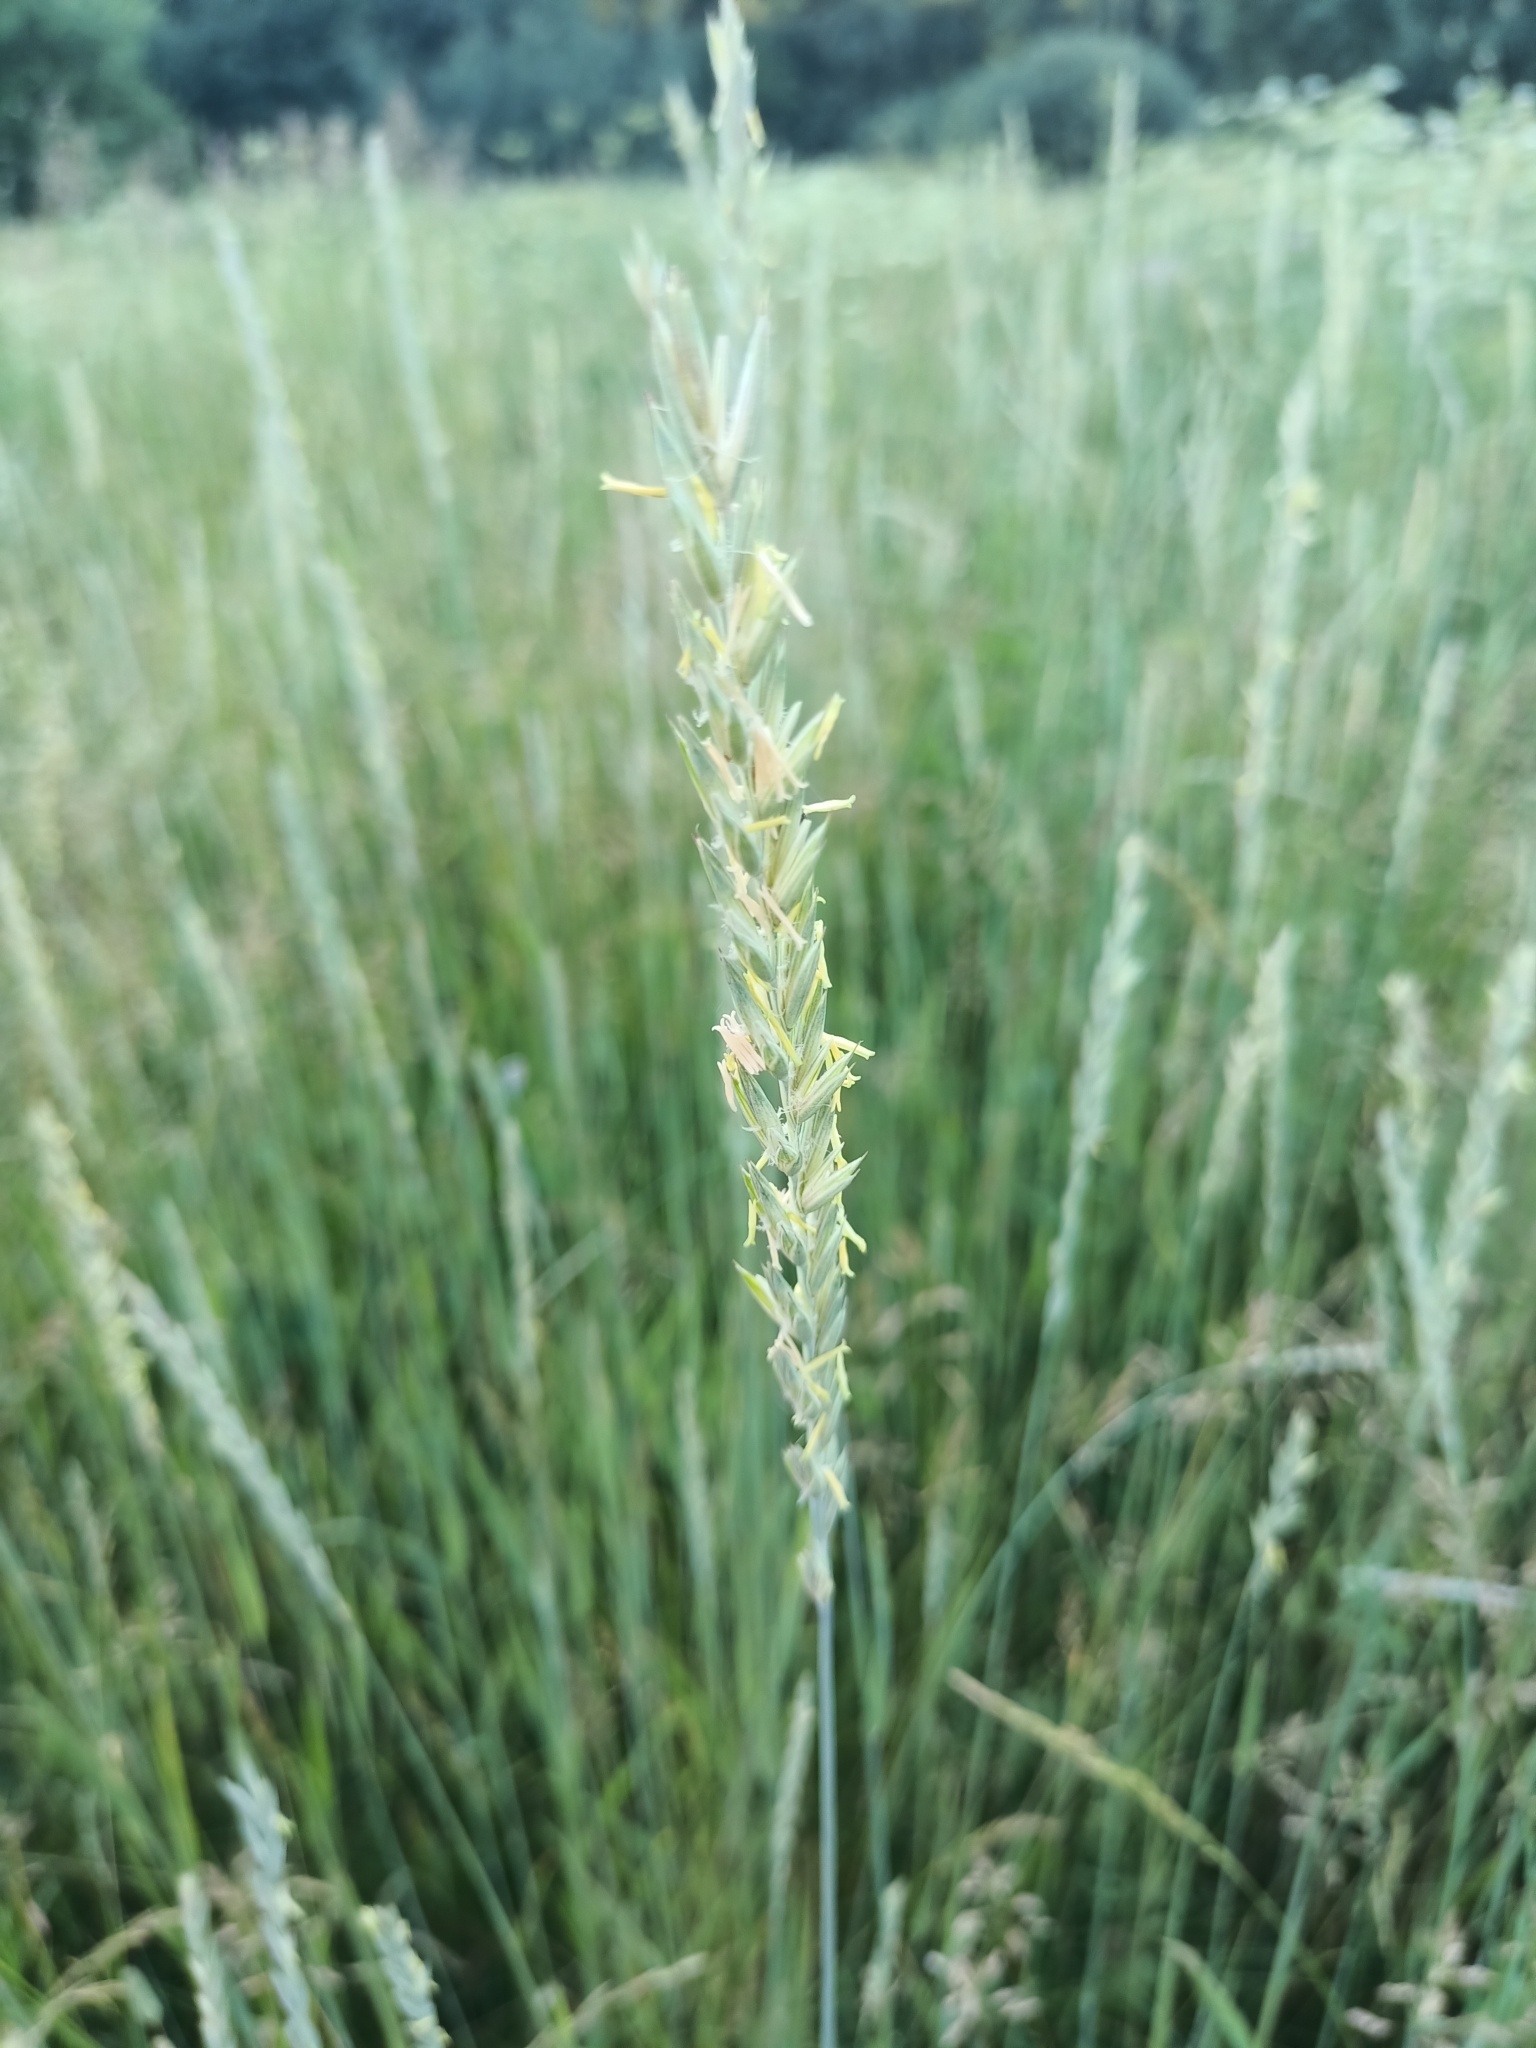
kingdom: Plantae
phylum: Tracheophyta
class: Liliopsida
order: Poales
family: Poaceae
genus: Elymus
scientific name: Elymus repens
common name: Quackgrass
